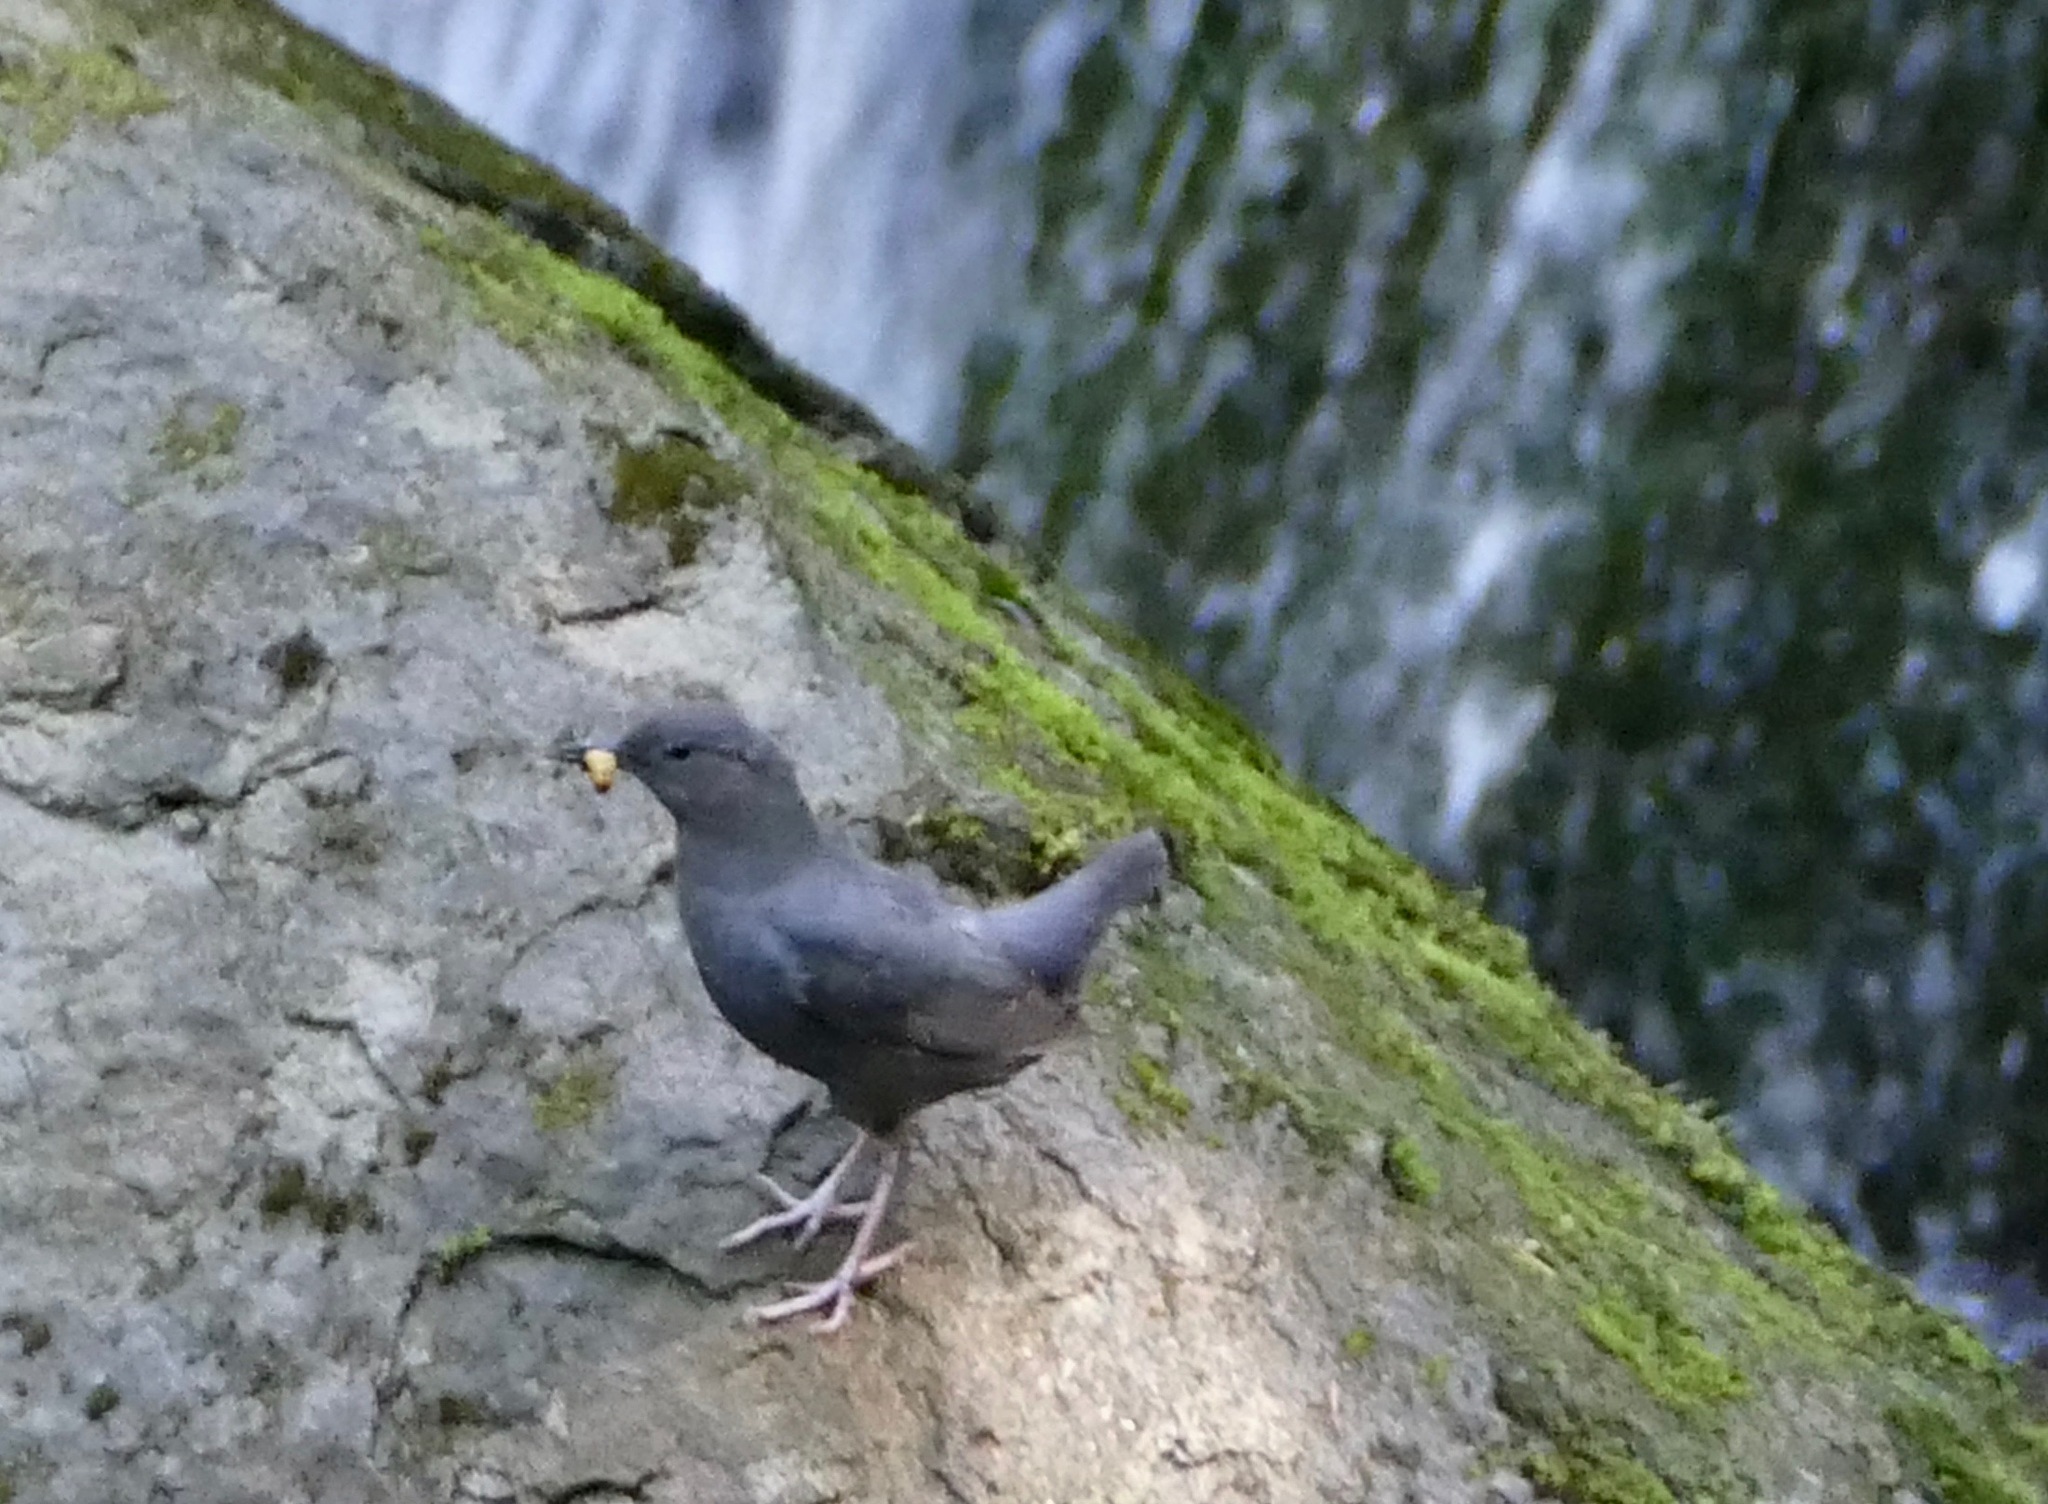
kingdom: Animalia
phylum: Chordata
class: Aves
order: Passeriformes
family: Cinclidae
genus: Cinclus
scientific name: Cinclus mexicanus
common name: American dipper
